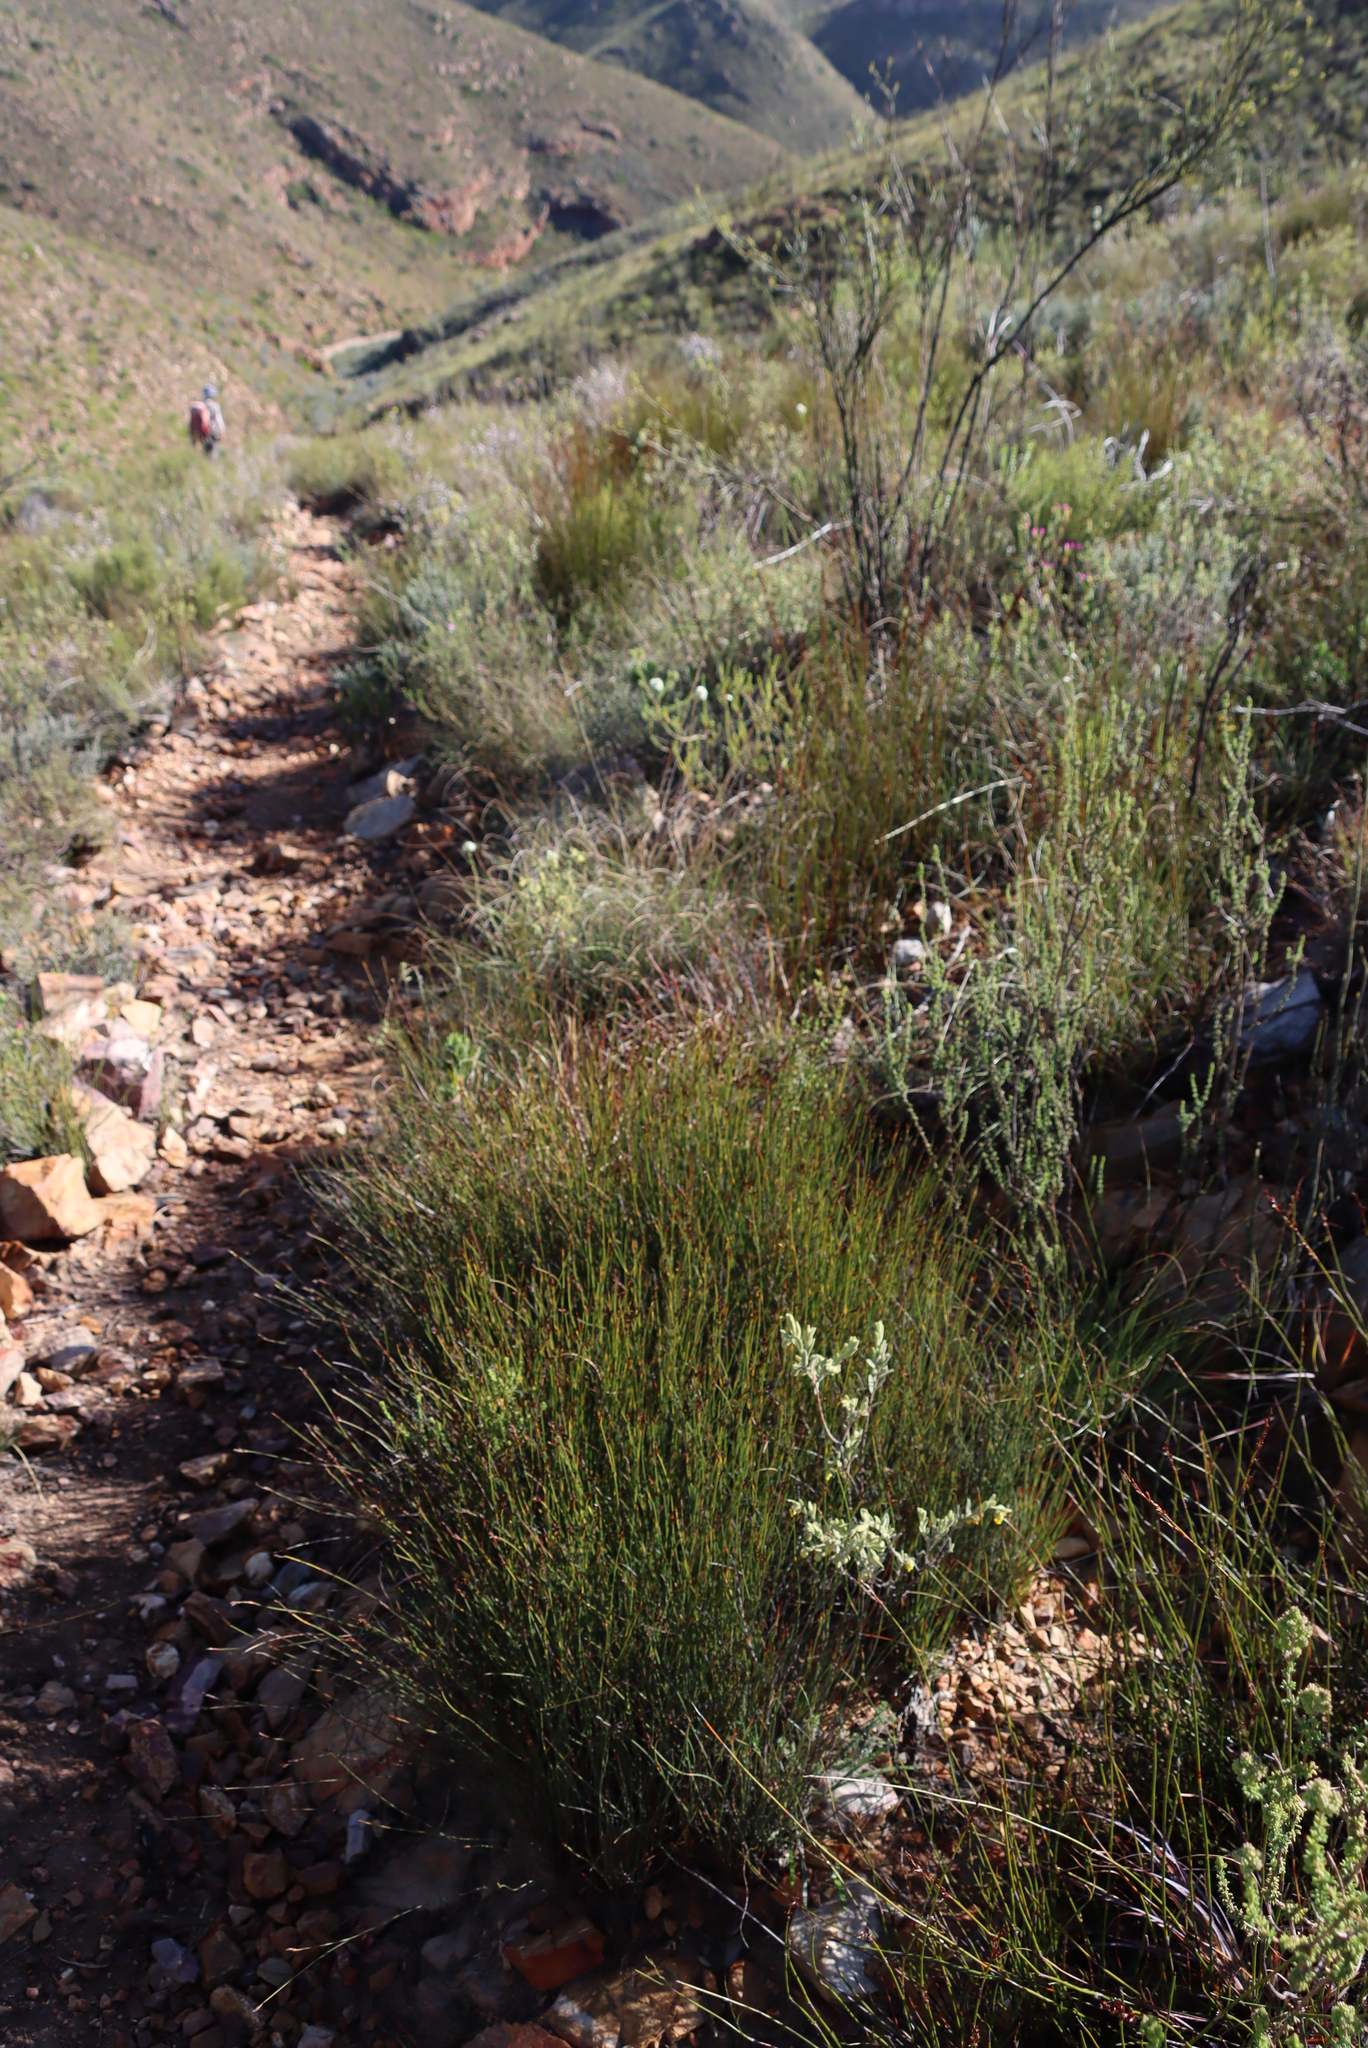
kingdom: Plantae
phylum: Tracheophyta
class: Liliopsida
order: Poales
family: Restionaceae
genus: Hypodiscus
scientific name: Hypodiscus striatus
